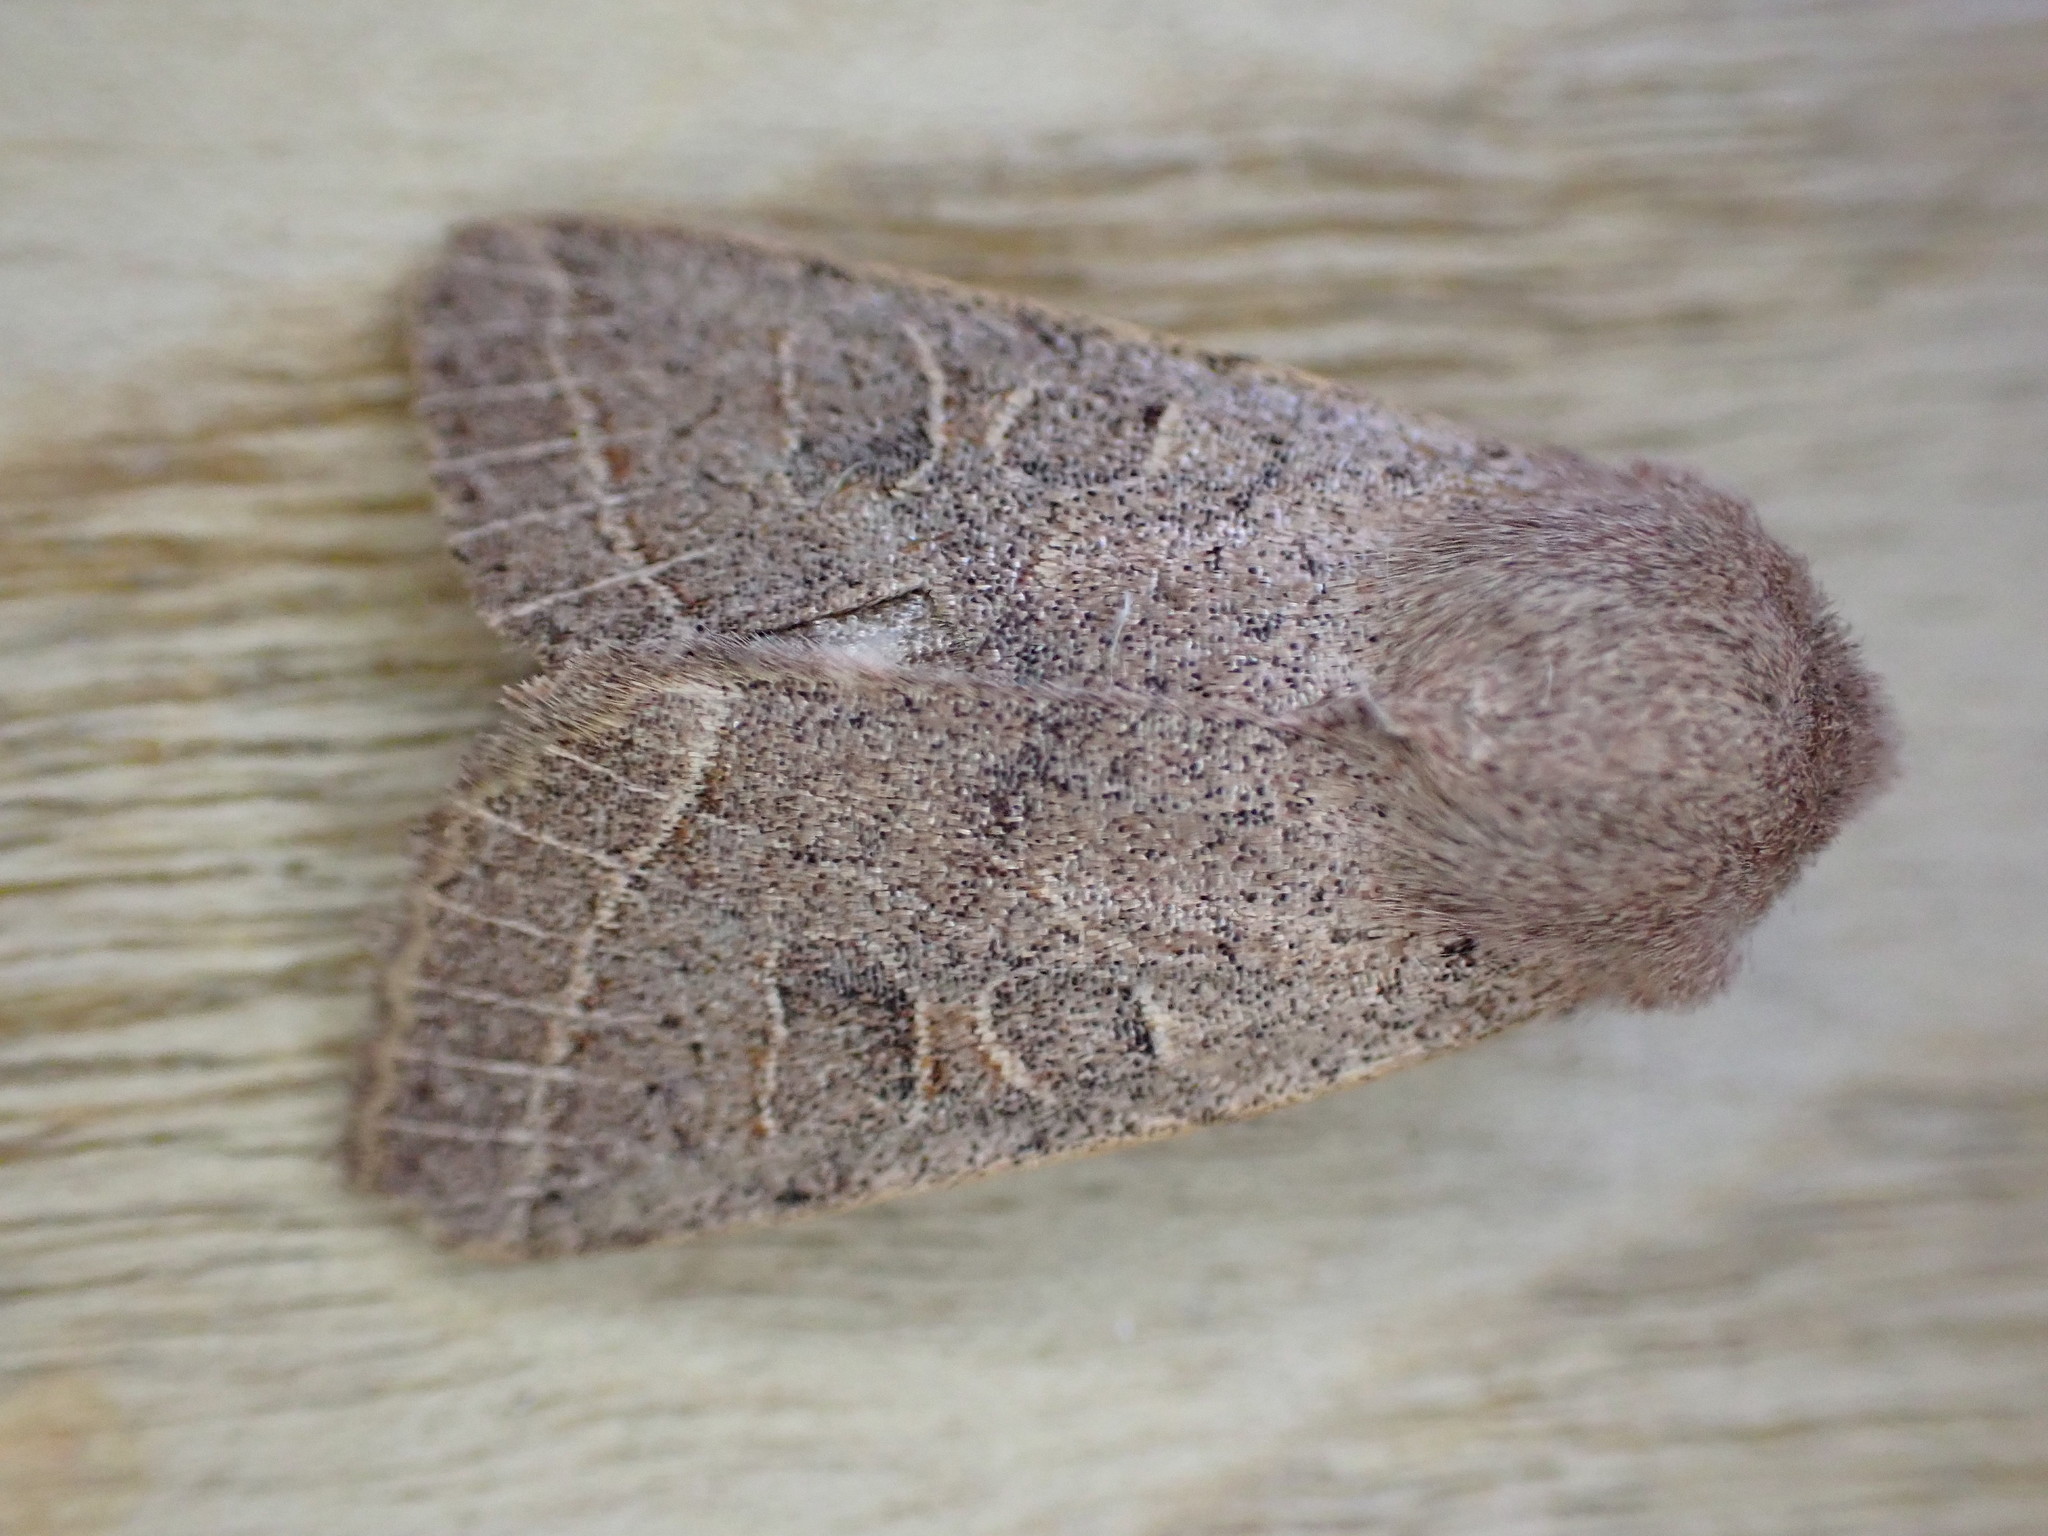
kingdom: Animalia
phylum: Arthropoda
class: Insecta
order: Lepidoptera
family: Noctuidae
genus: Orthosia
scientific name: Orthosia cerasi
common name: Common quaker
